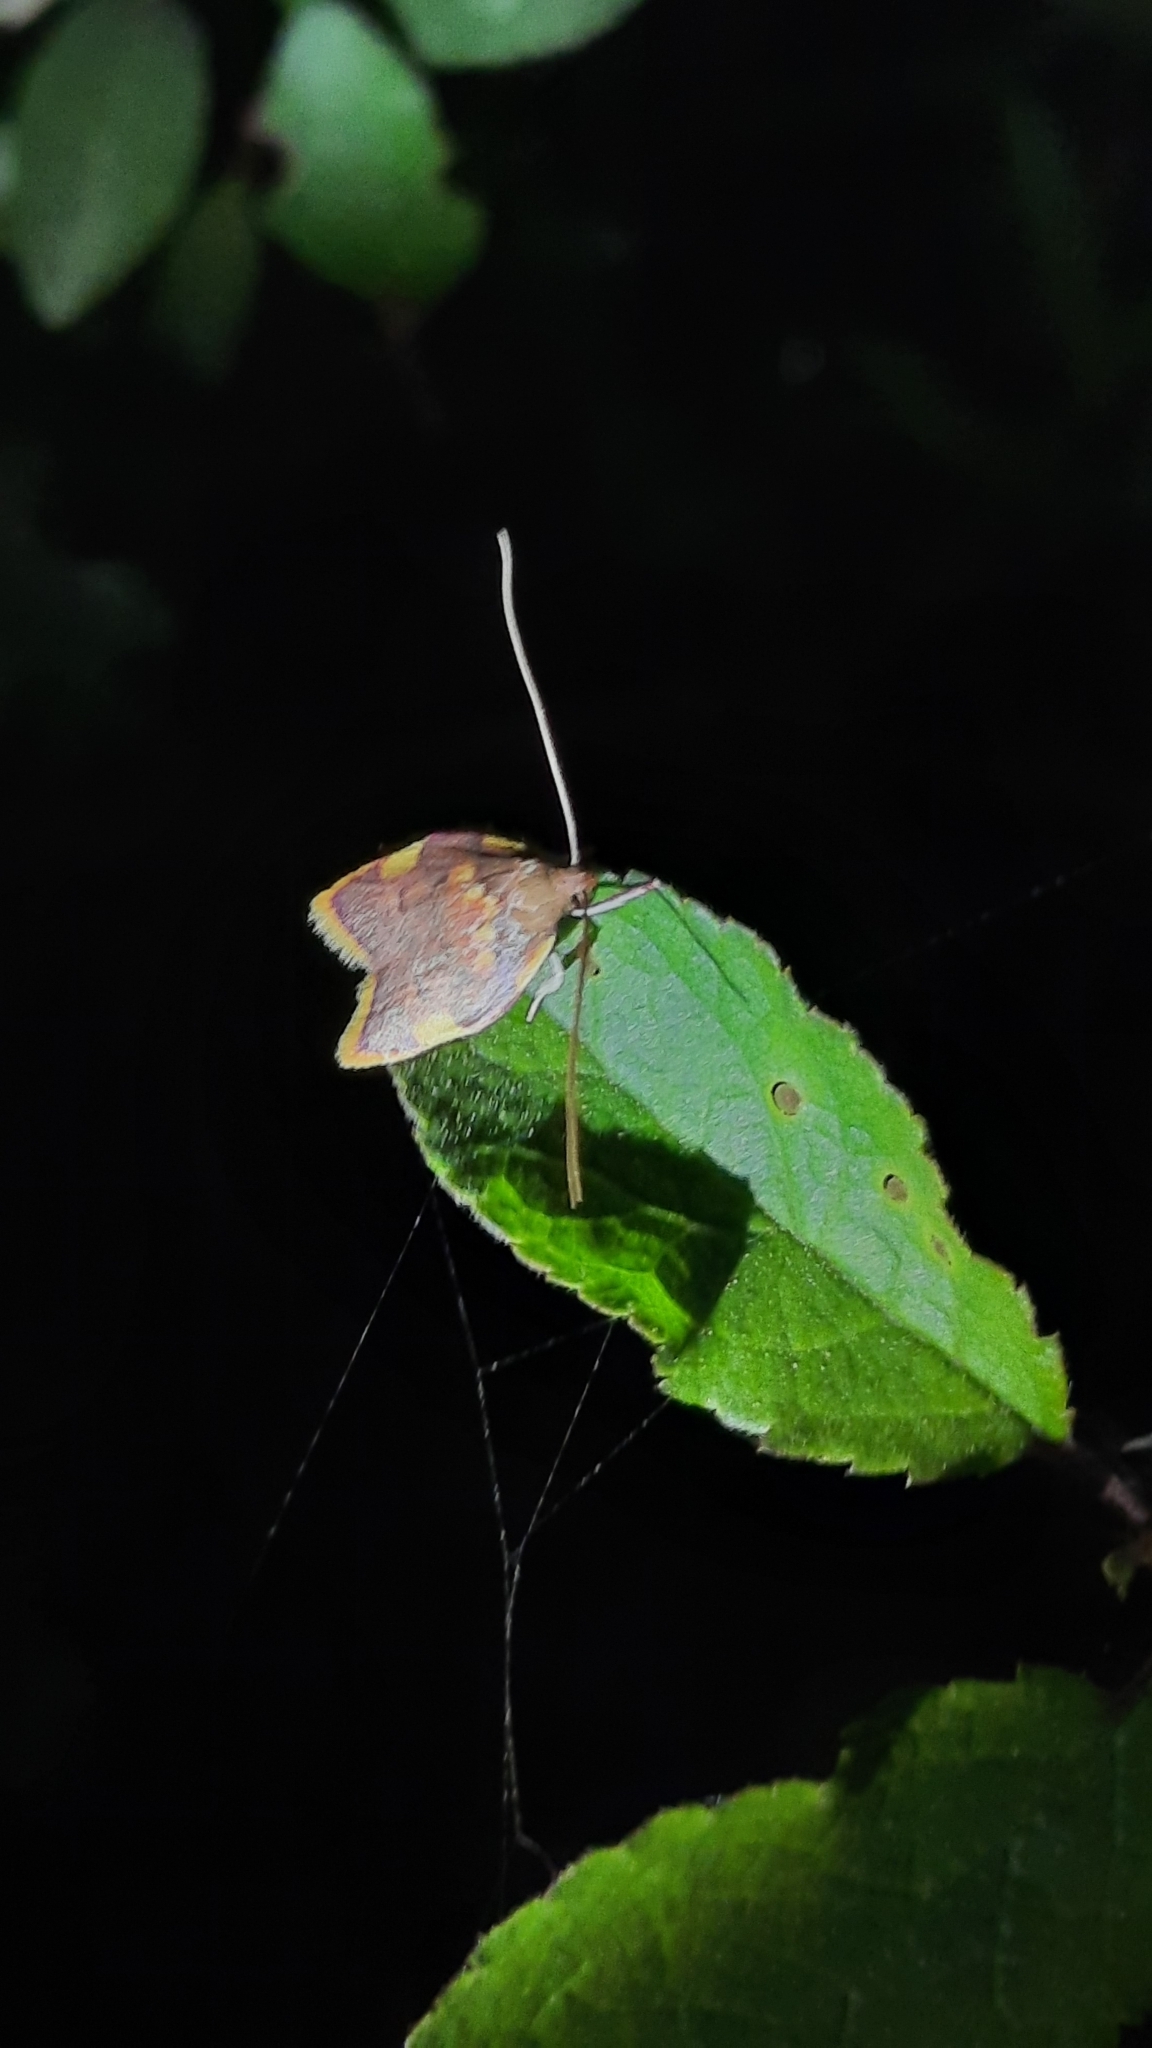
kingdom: Animalia
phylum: Arthropoda
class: Insecta
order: Lepidoptera
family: Peleopodidae
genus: Carcina
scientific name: Carcina quercana
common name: Moth
